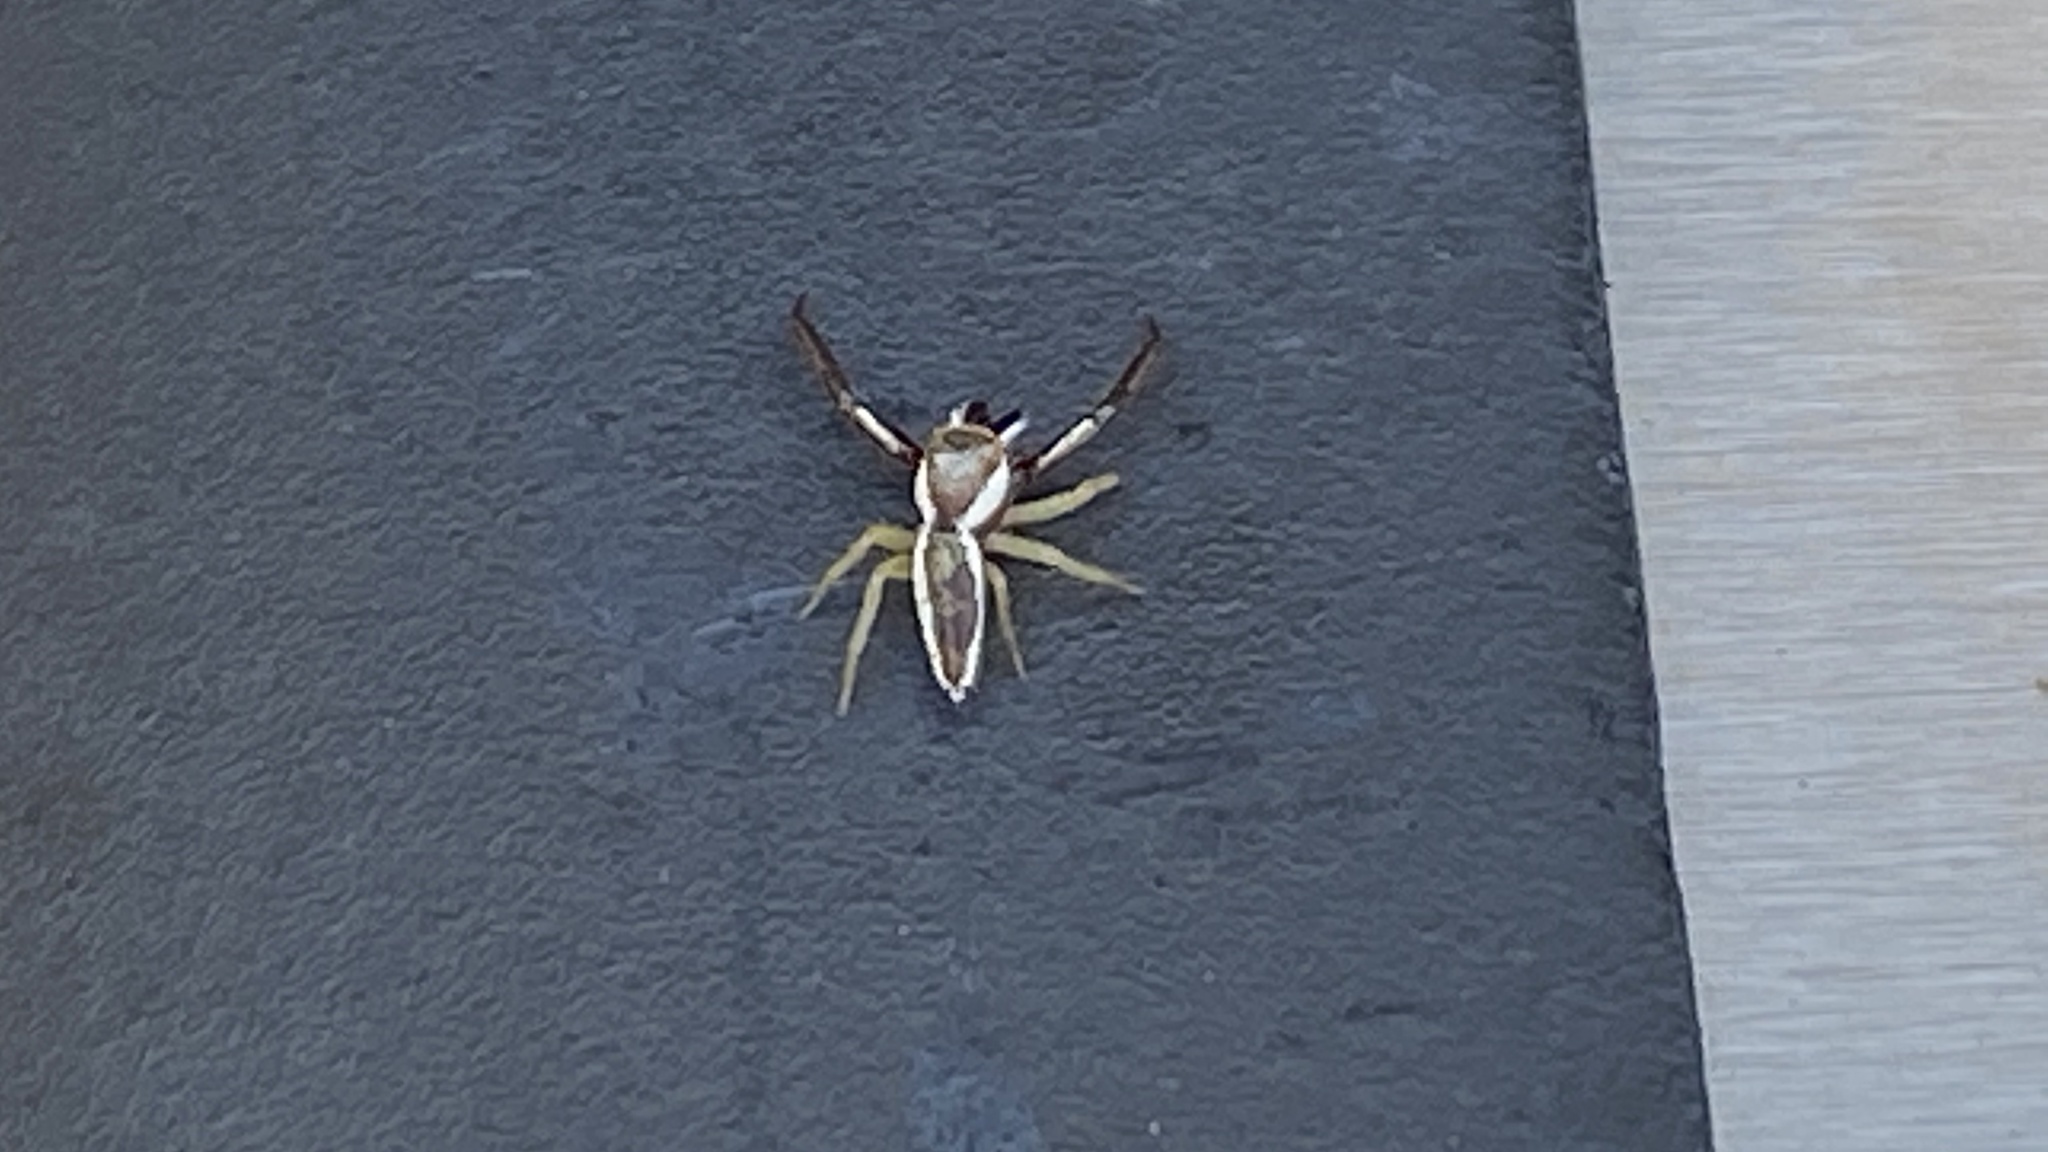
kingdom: Animalia
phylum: Arthropoda
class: Arachnida
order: Araneae
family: Salticidae
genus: Hentzia
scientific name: Hentzia palmarum
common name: Common hentz jumping spider
